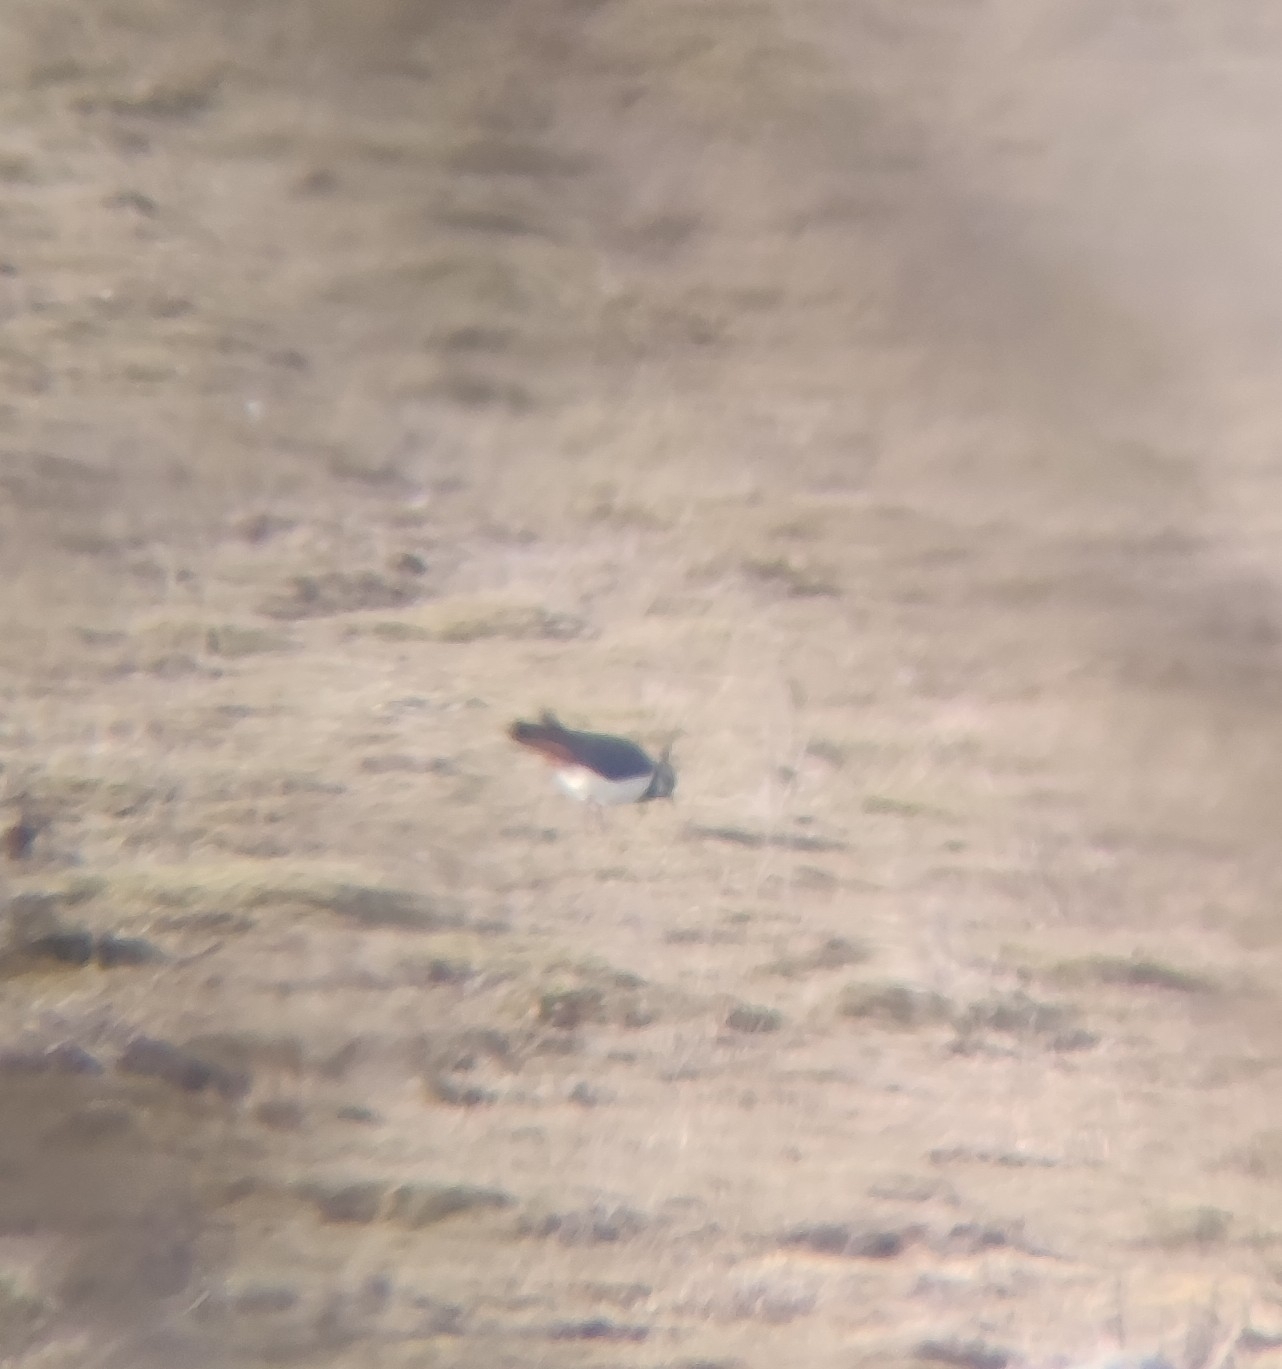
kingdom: Animalia
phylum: Chordata
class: Aves
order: Charadriiformes
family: Charadriidae
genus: Vanellus
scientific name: Vanellus vanellus
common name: Northern lapwing
